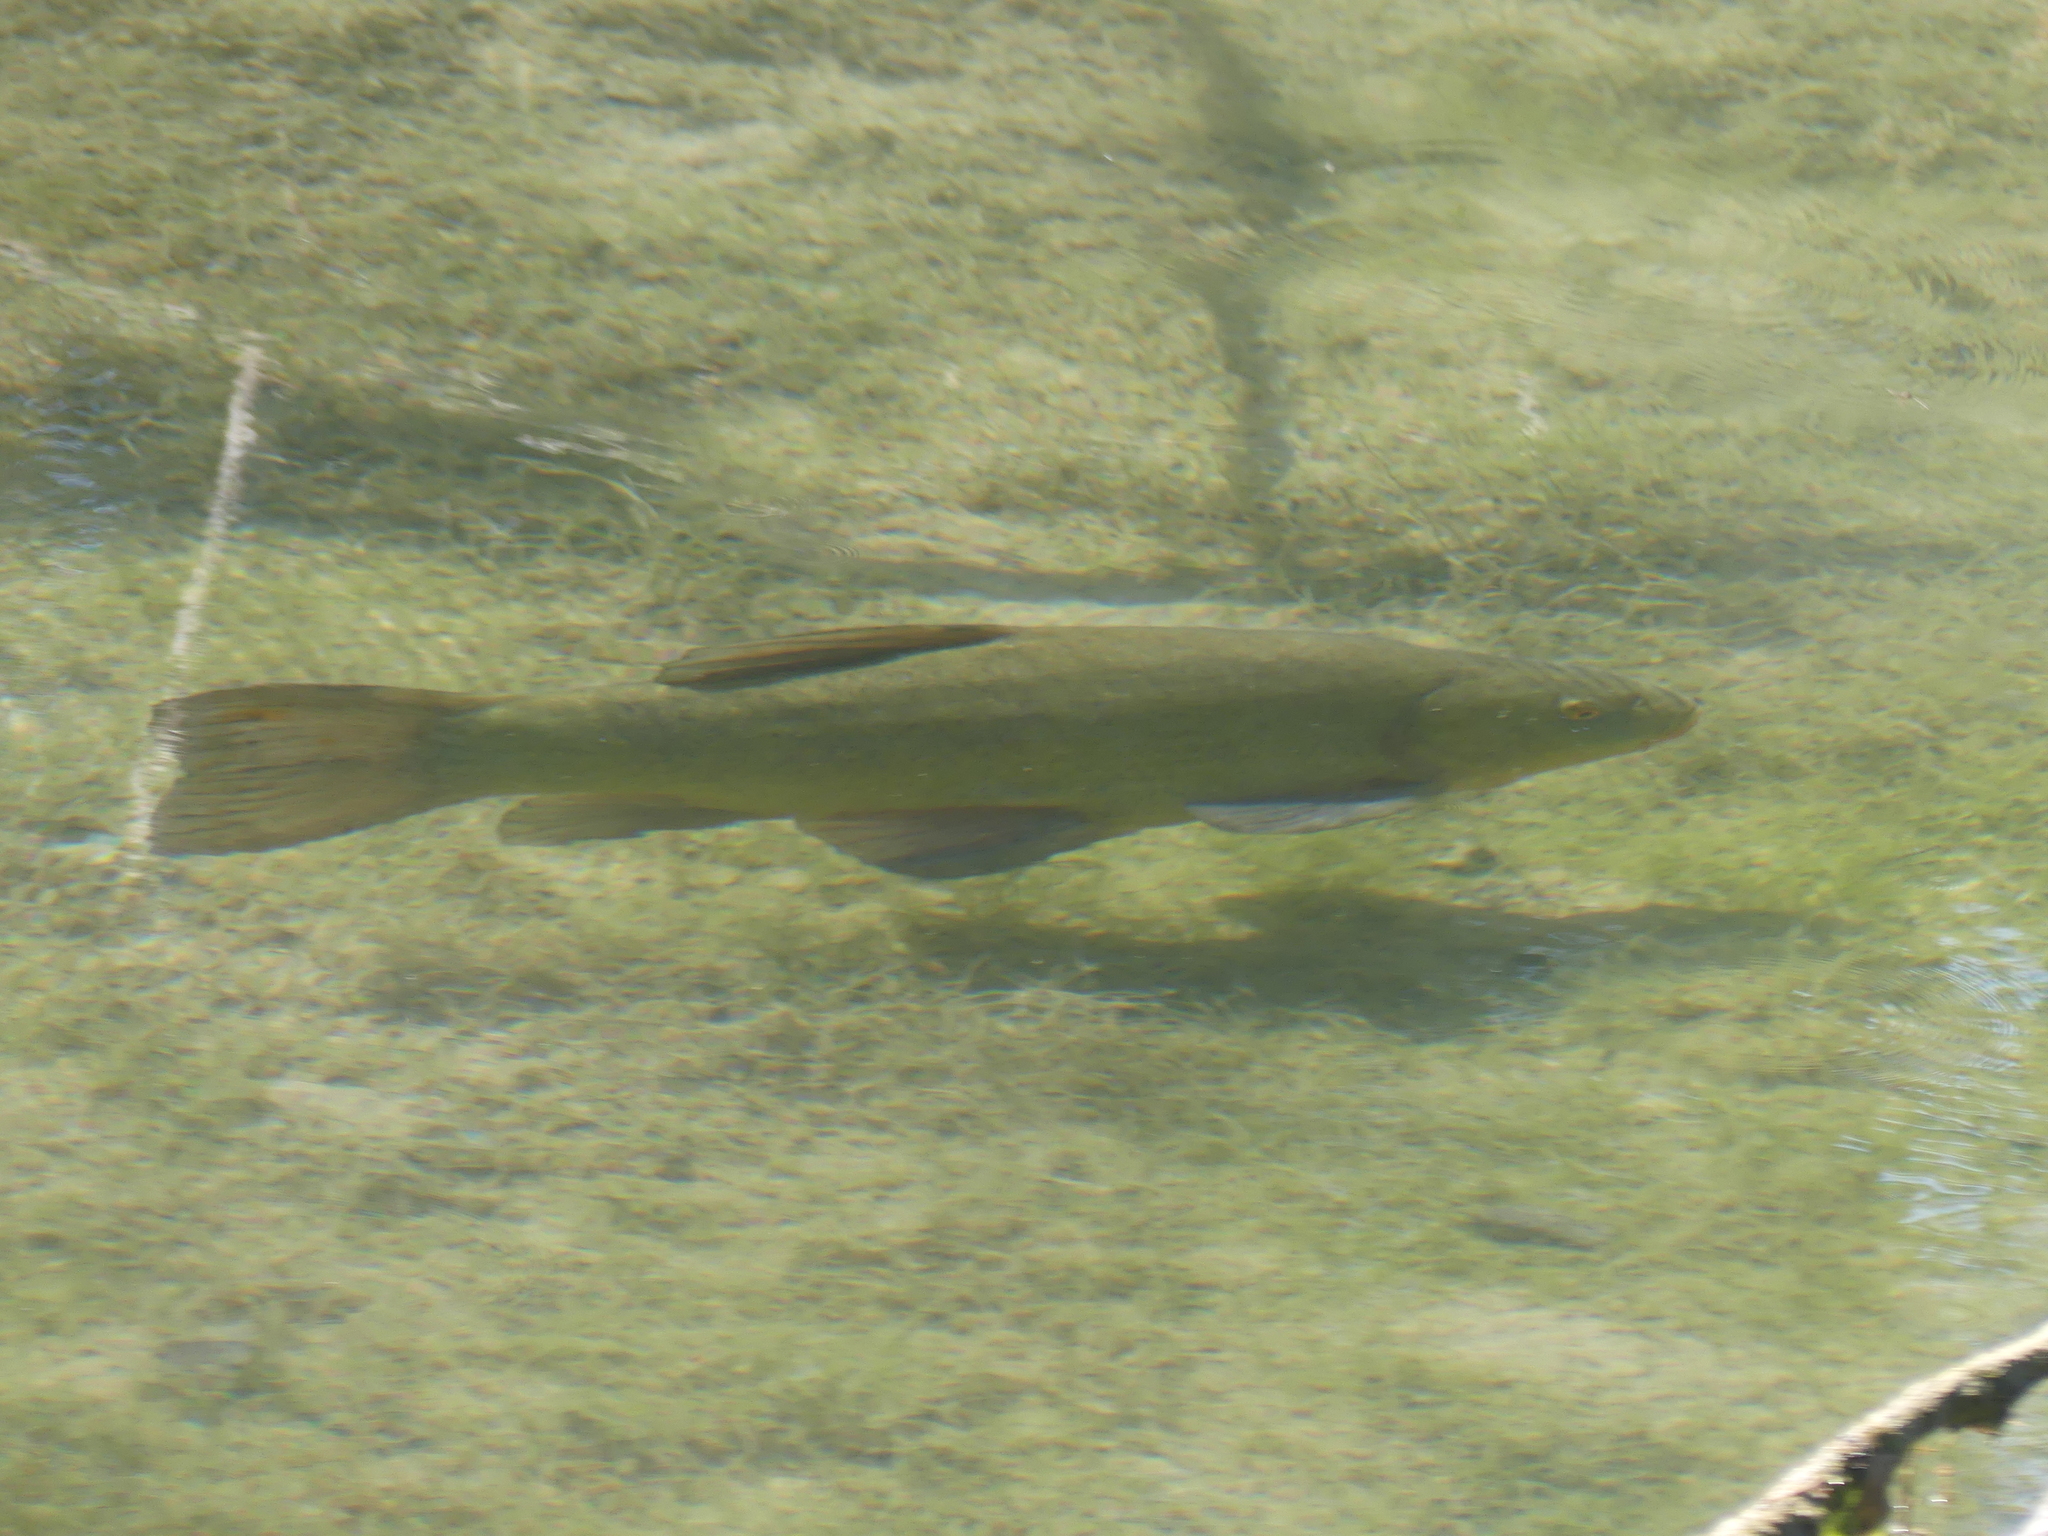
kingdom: Animalia
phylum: Chordata
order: Cypriniformes
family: Cyprinidae
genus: Tinca
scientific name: Tinca tinca
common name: Tench
